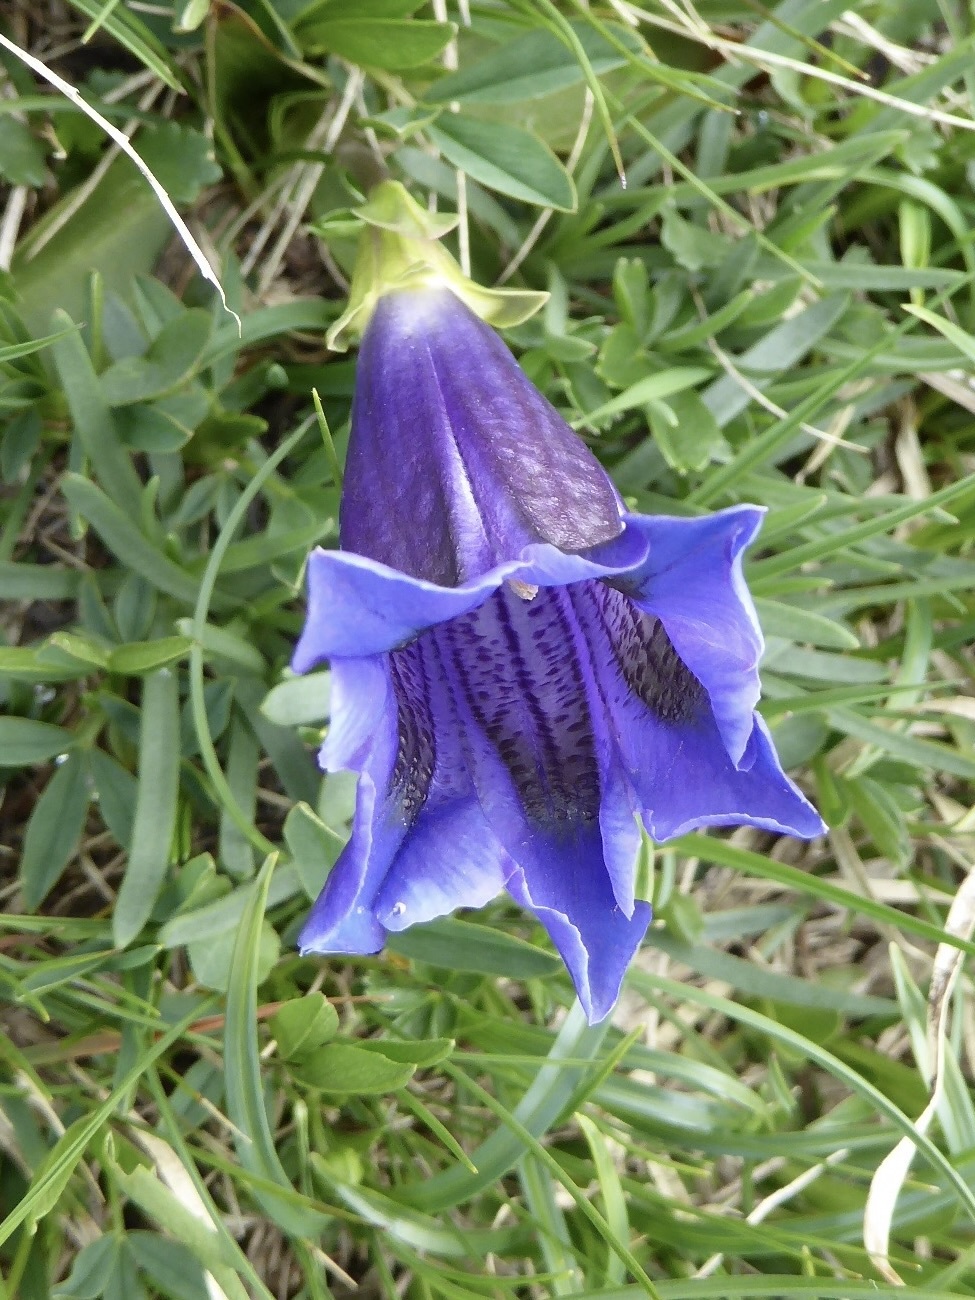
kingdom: Plantae
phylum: Tracheophyta
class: Magnoliopsida
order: Gentianales
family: Gentianaceae
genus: Gentiana
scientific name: Gentiana acaulis
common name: Trumpet gentian
